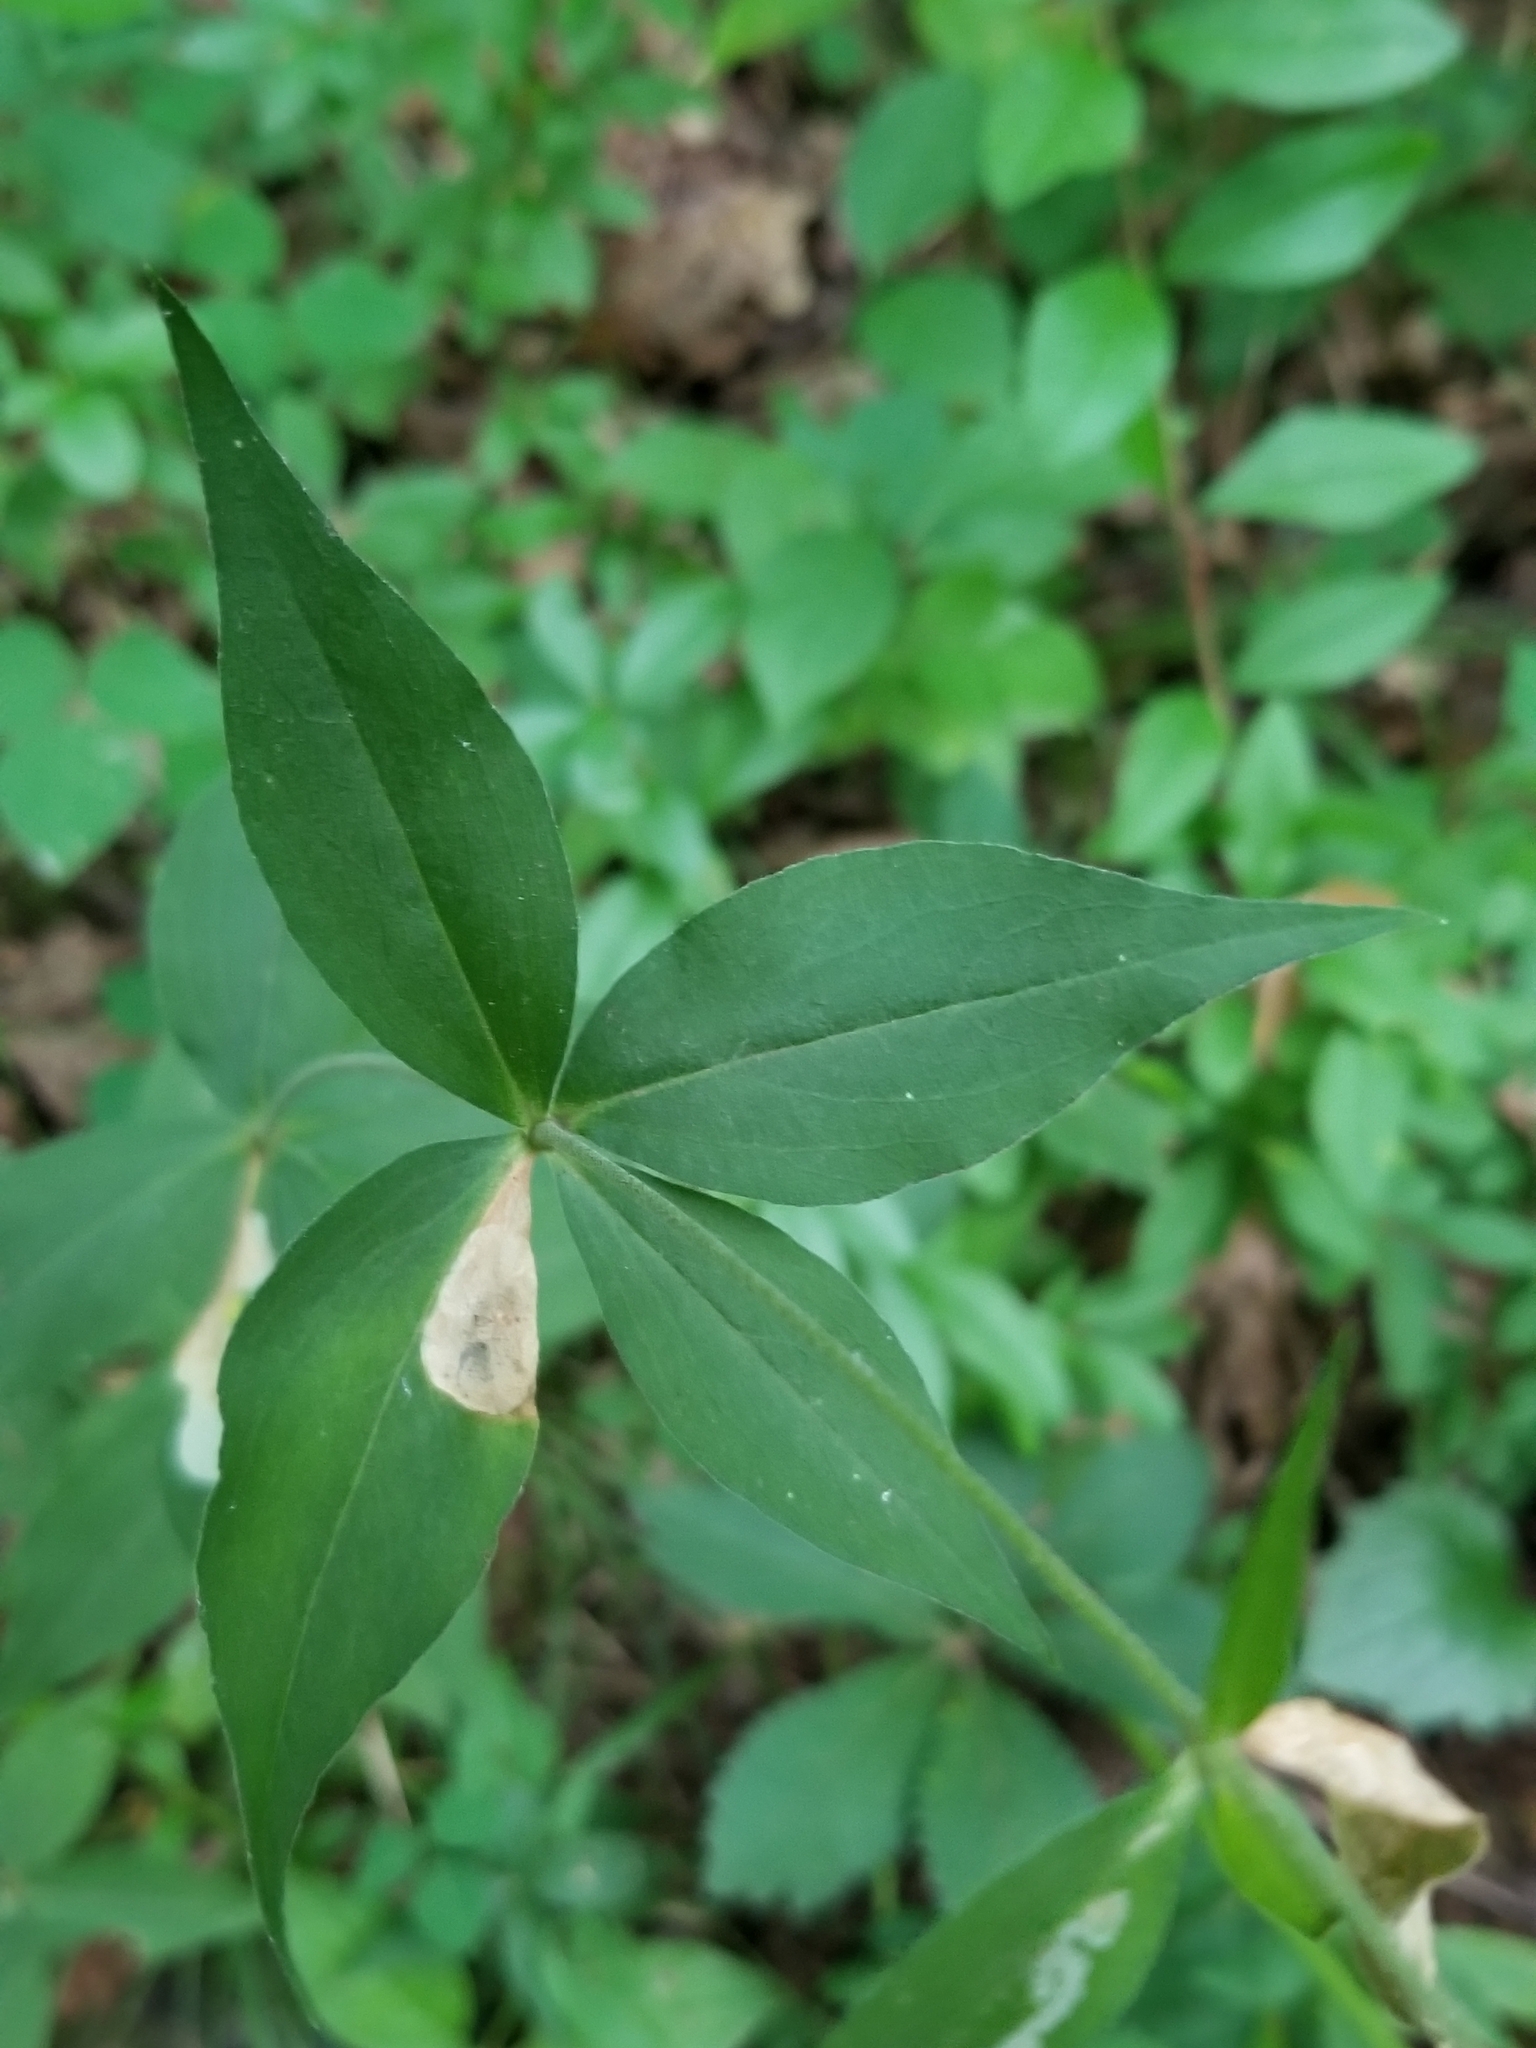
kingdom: Plantae
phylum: Tracheophyta
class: Magnoliopsida
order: Caryophyllales
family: Caryophyllaceae
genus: Silene
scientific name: Silene stellata
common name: Starry campion
